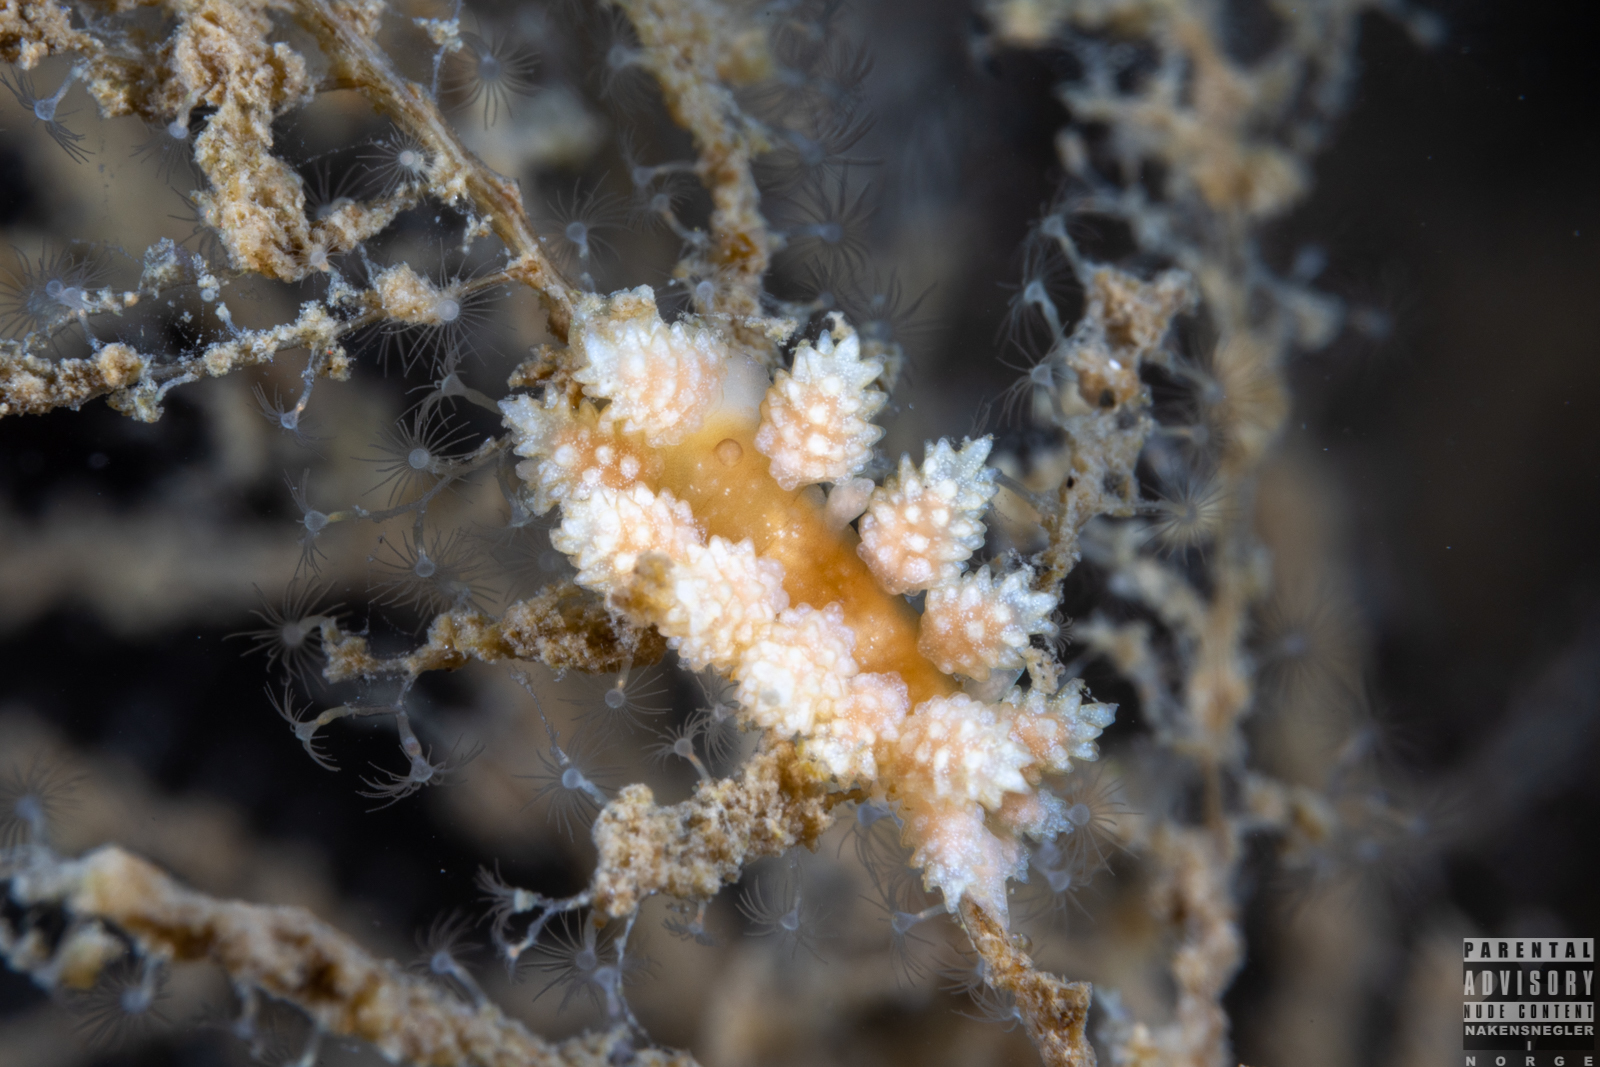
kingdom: Animalia
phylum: Mollusca
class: Gastropoda
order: Nudibranchia
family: Dotidae
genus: Doto
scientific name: Doto fragilis
